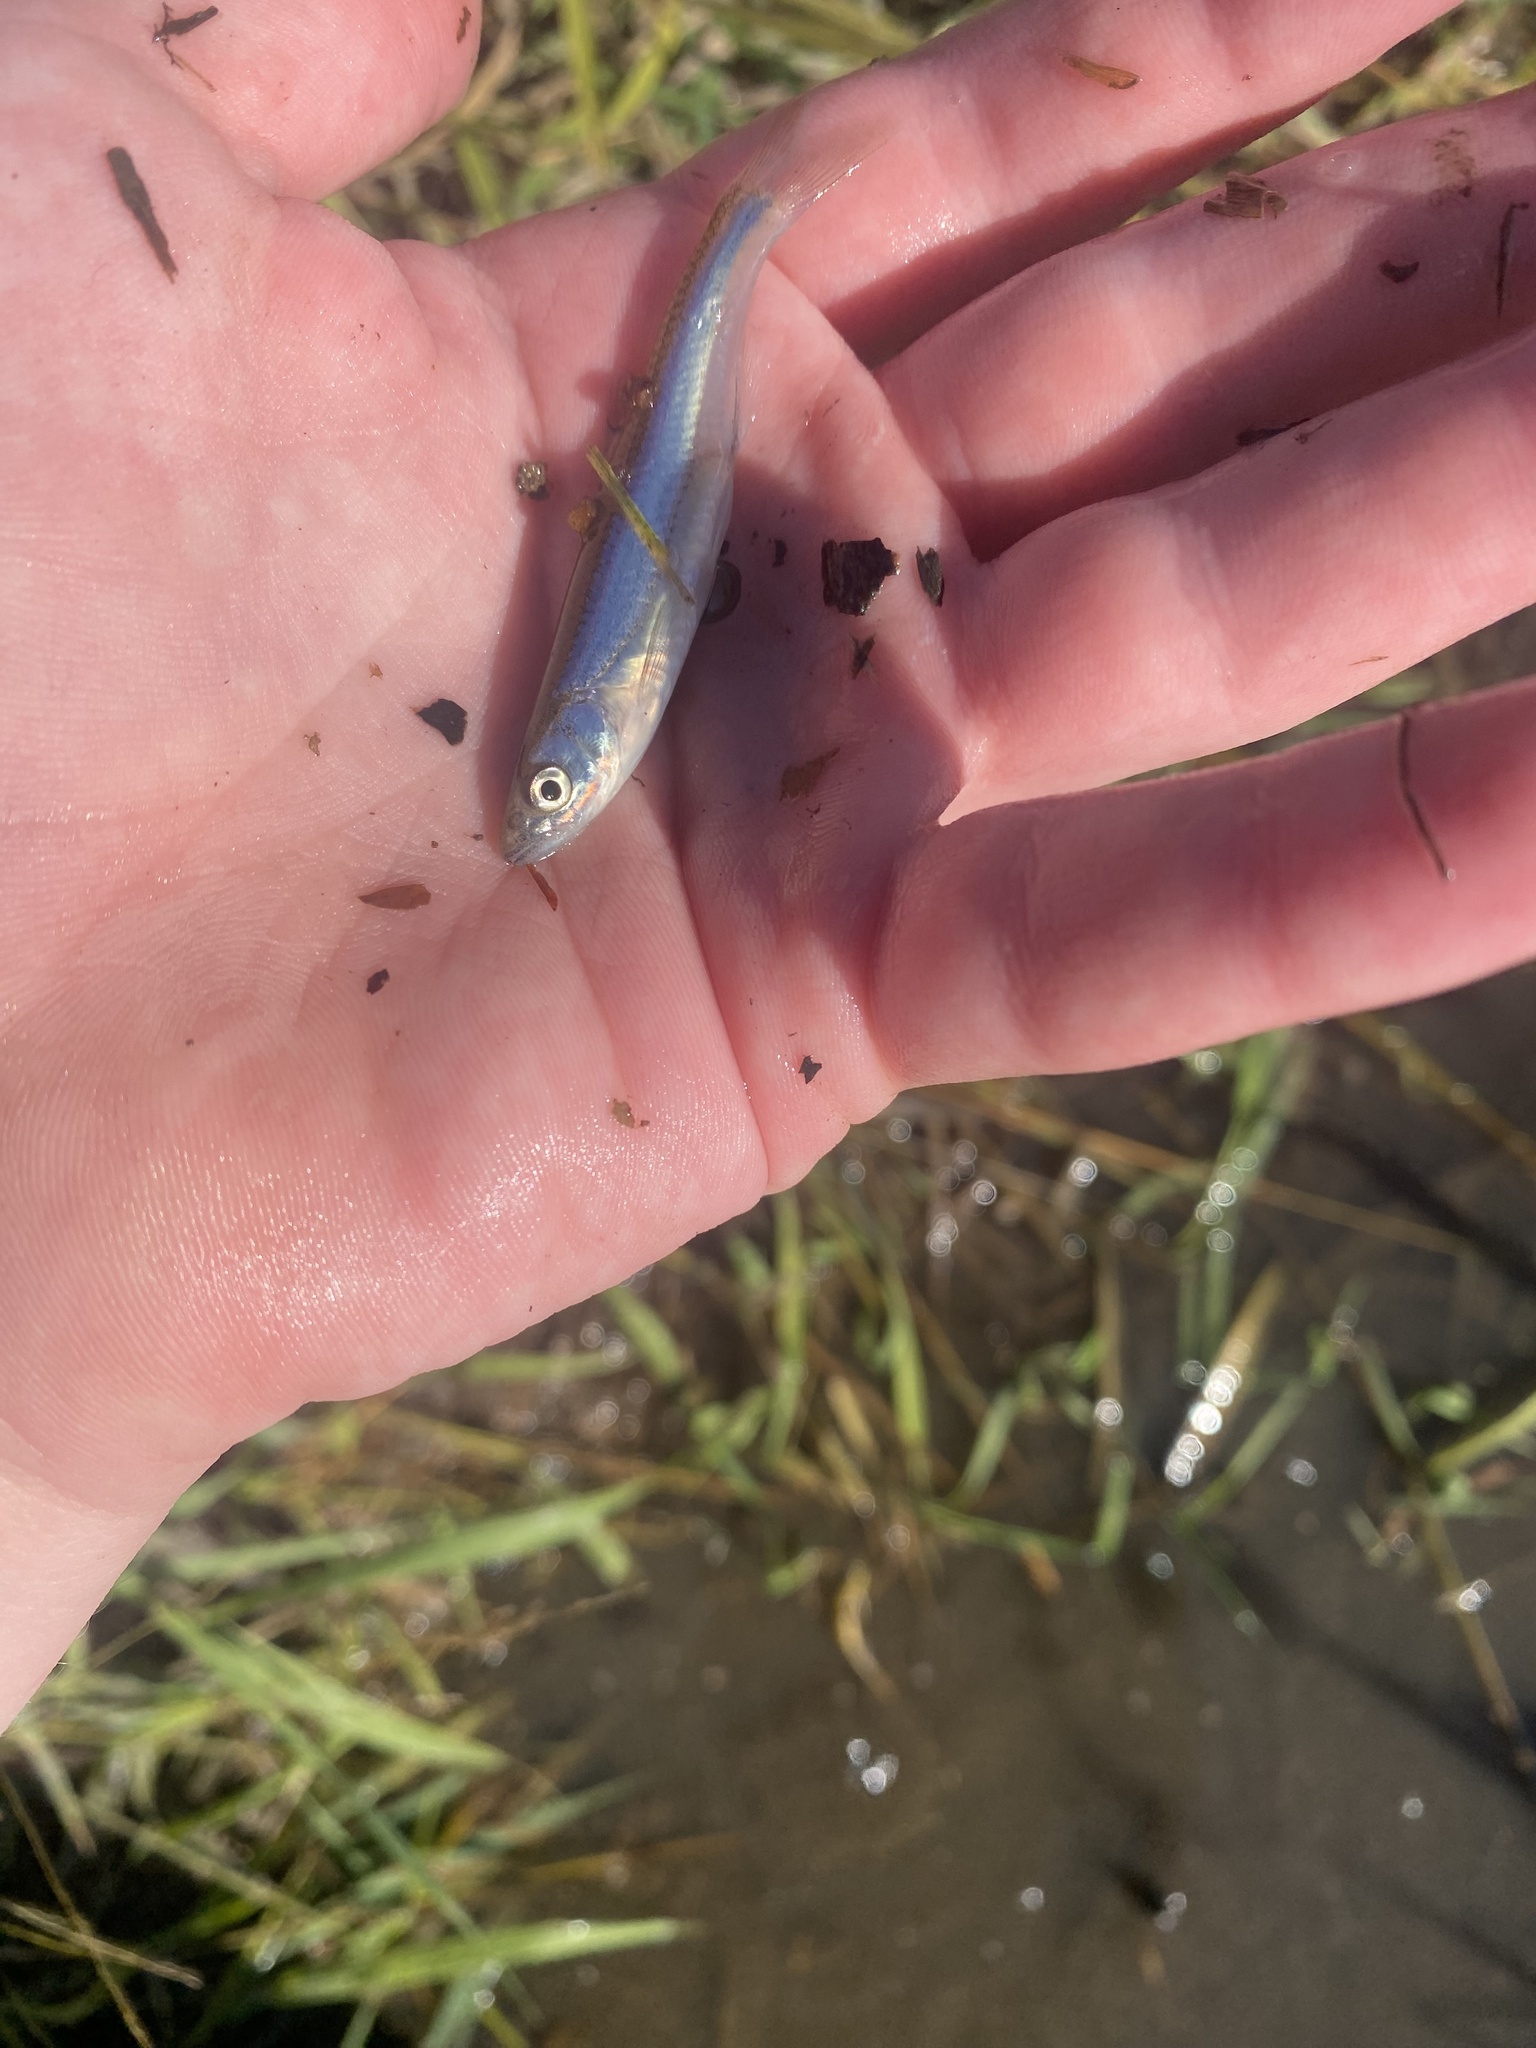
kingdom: Animalia
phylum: Chordata
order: Cypriniformes
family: Cyprinidae
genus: Notropis
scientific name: Notropis percobromus
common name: Carmine shiner
